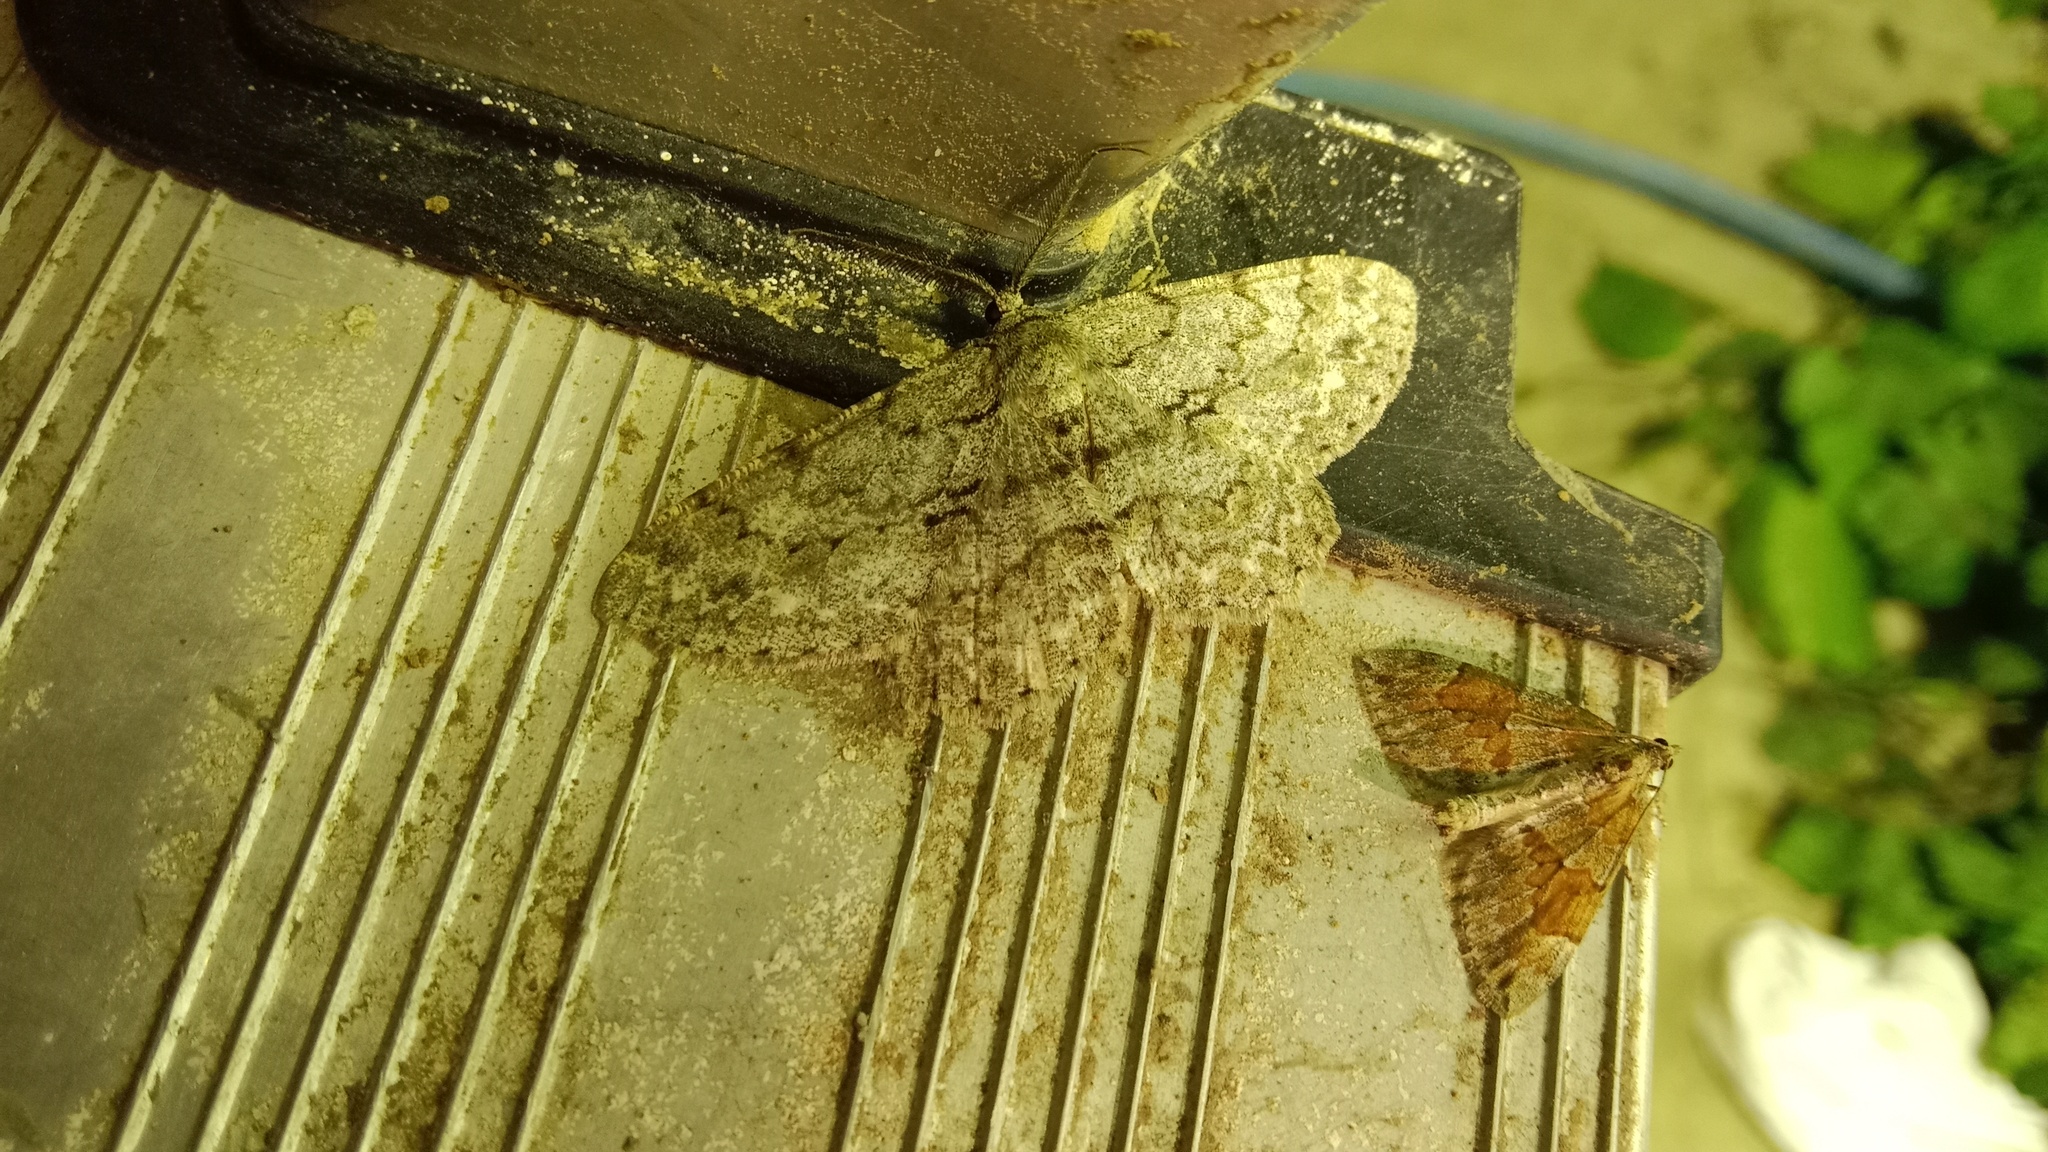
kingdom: Animalia
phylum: Arthropoda
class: Insecta
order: Lepidoptera
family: Geometridae
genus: Hypomecis
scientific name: Hypomecis punctinalis
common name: Pale oak beauty
